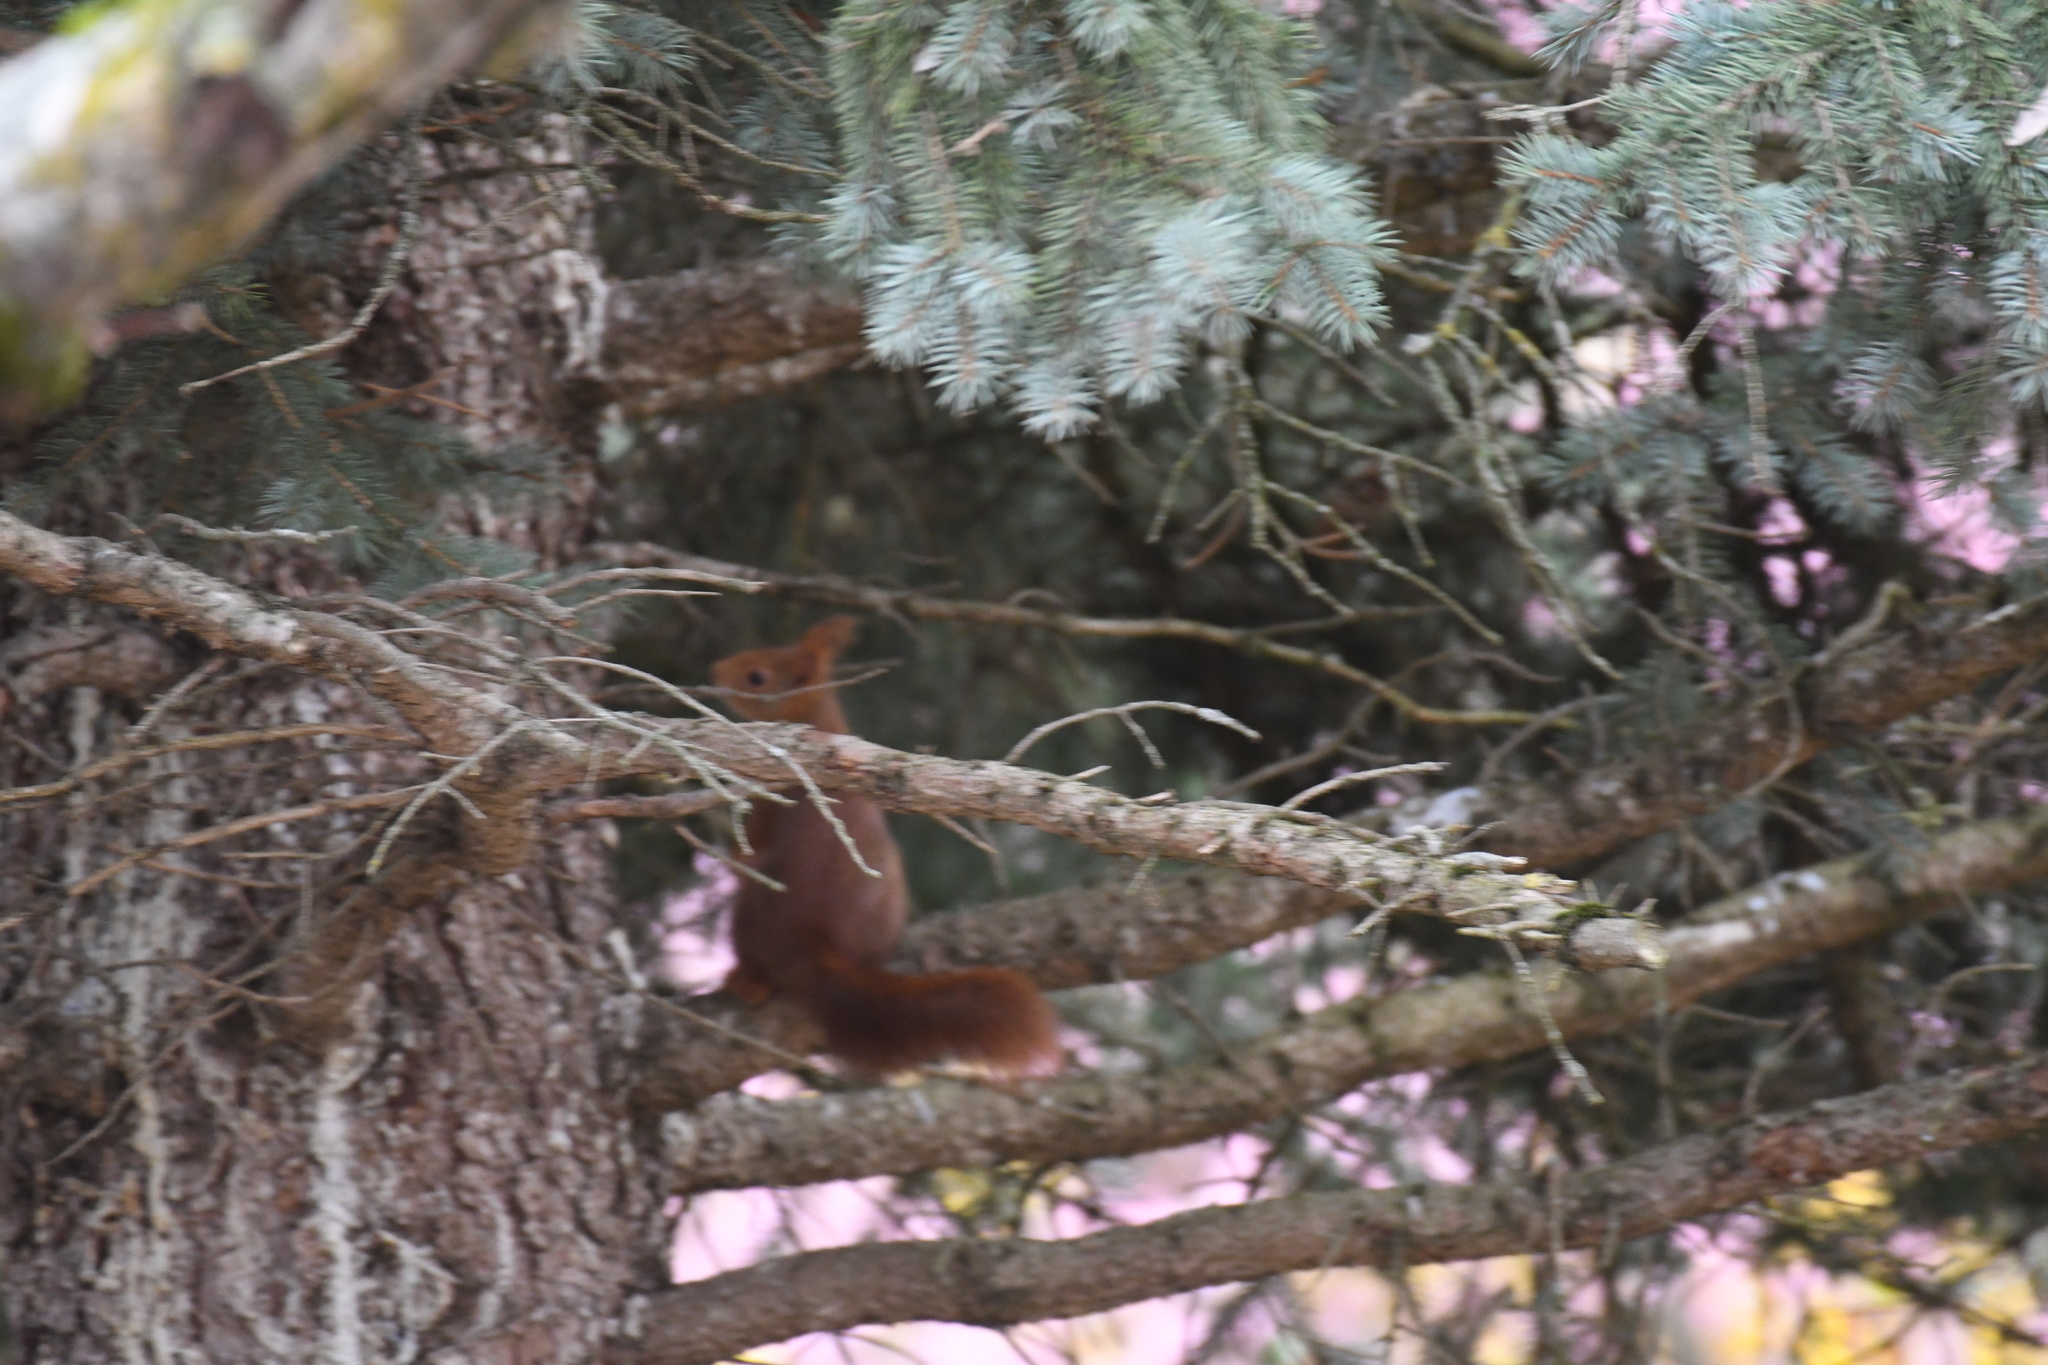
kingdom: Animalia
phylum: Chordata
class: Mammalia
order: Rodentia
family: Sciuridae
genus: Sciurus
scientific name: Sciurus vulgaris
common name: Eurasian red squirrel
